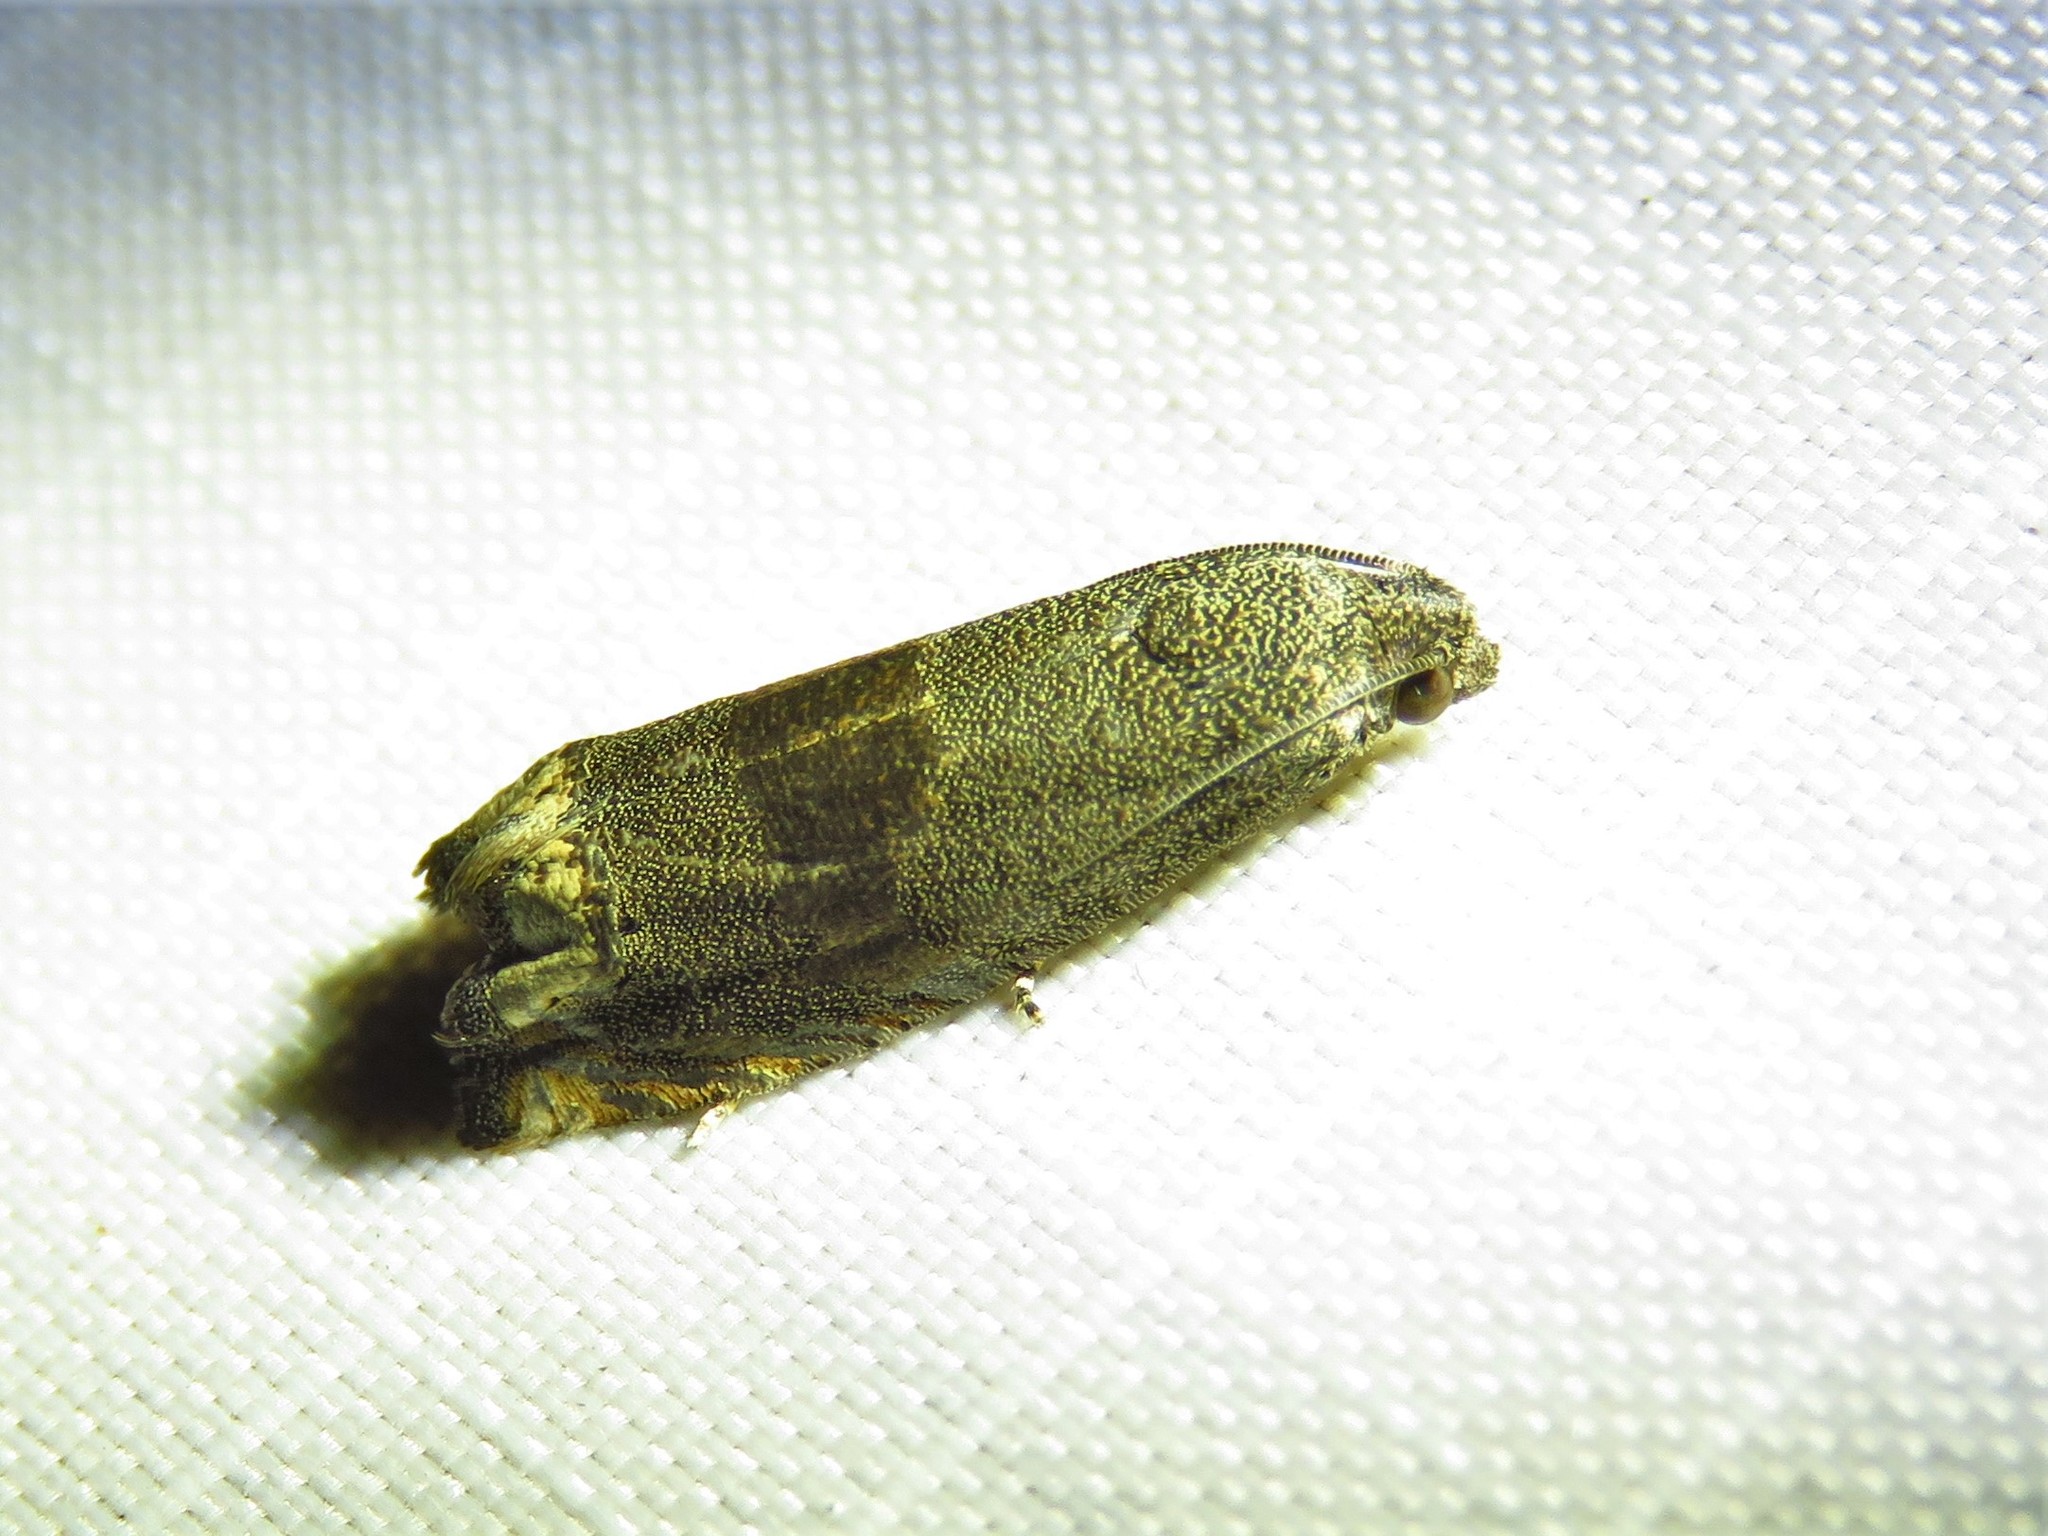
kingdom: Animalia
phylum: Arthropoda
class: Insecta
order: Lepidoptera
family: Tortricidae
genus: Epiblema
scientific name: Epiblema strenuana
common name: Ragweed borer moth
